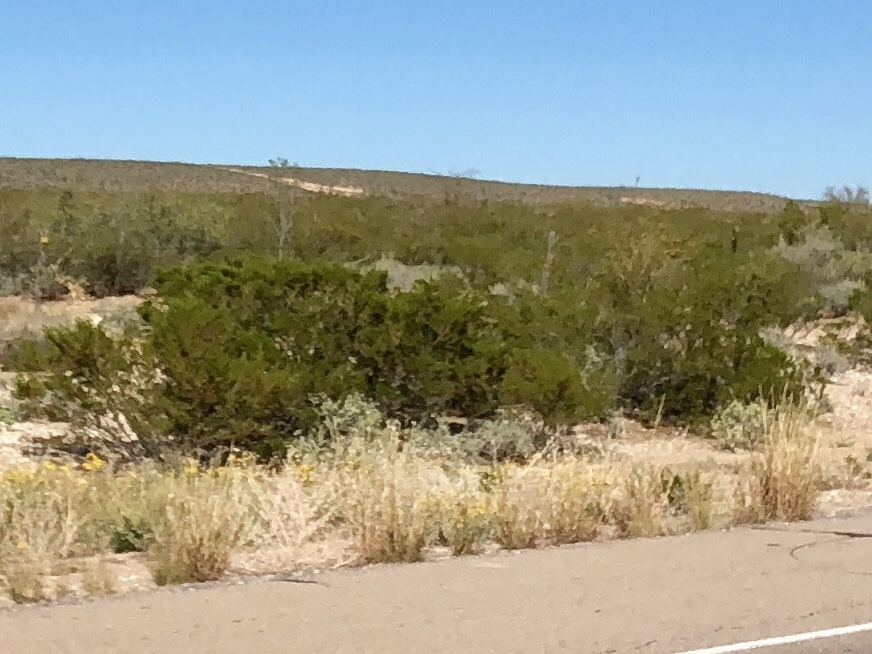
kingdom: Plantae
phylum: Tracheophyta
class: Magnoliopsida
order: Zygophyllales
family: Zygophyllaceae
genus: Larrea
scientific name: Larrea tridentata
